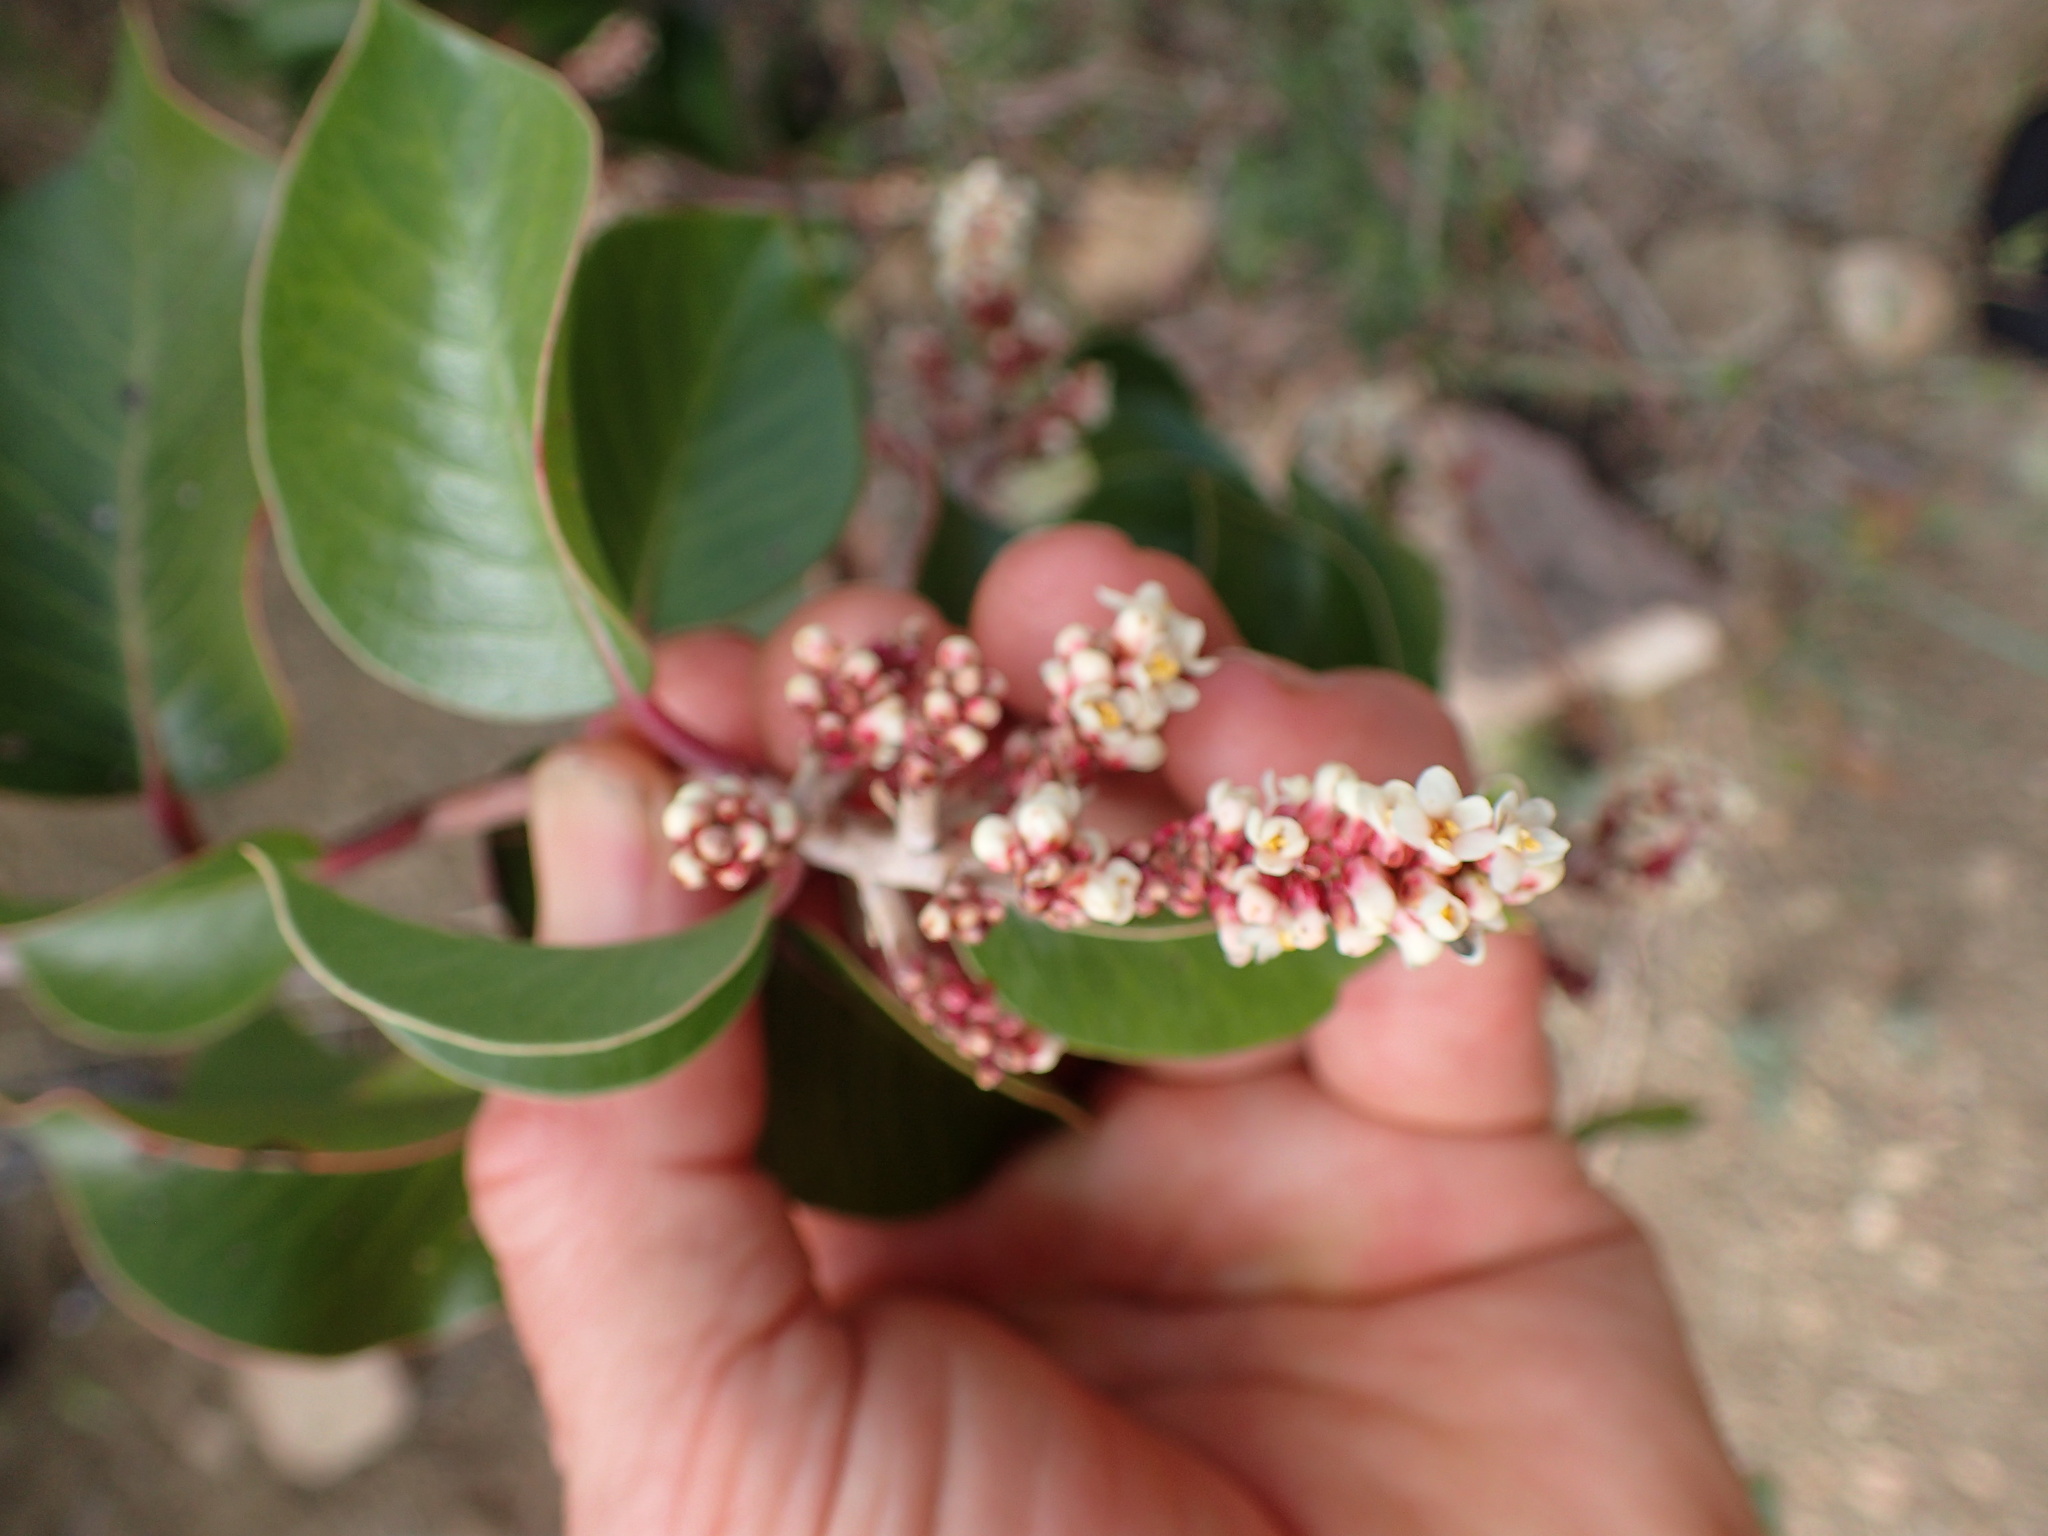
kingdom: Plantae
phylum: Tracheophyta
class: Magnoliopsida
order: Sapindales
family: Anacardiaceae
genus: Rhus
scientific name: Rhus ovata
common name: Sugar sumac
